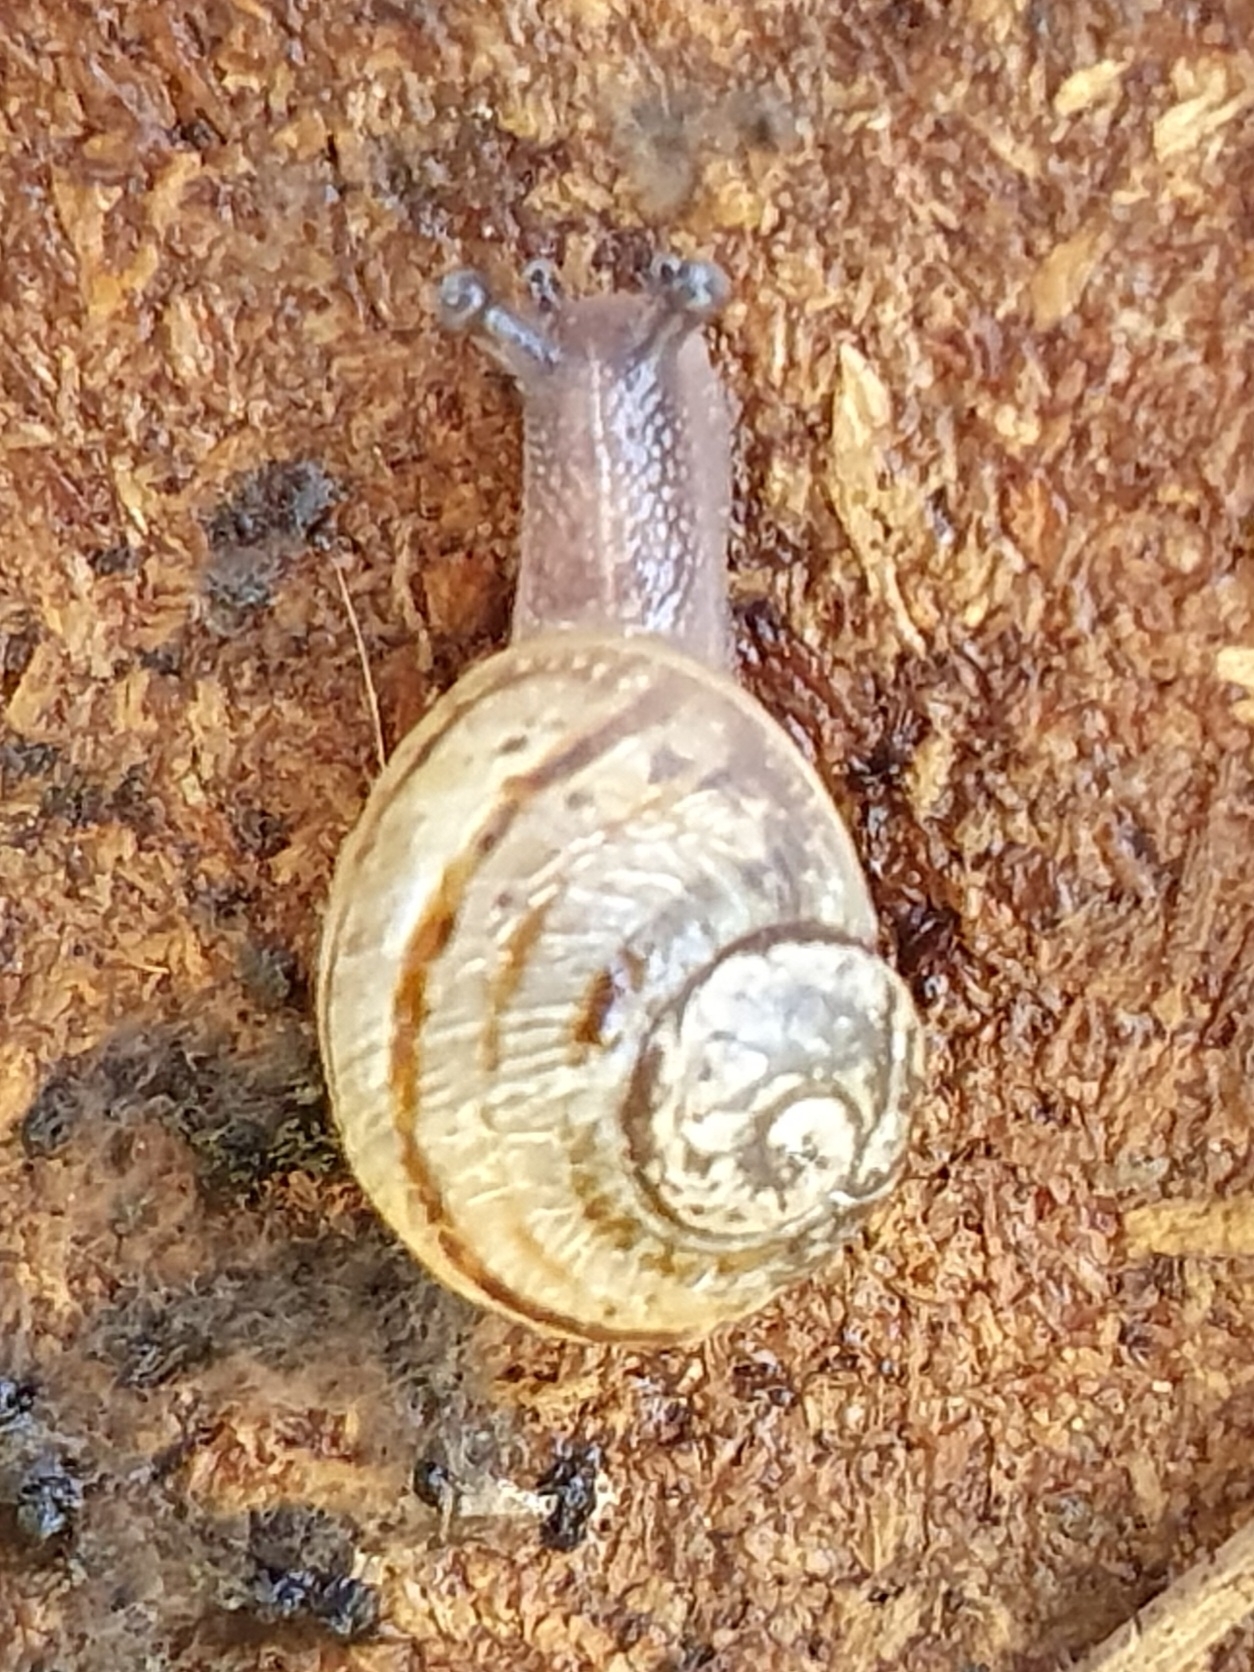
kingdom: Animalia
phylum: Mollusca
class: Gastropoda
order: Stylommatophora
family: Helicidae
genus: Cornu
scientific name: Cornu aspersum
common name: Brown garden snail
